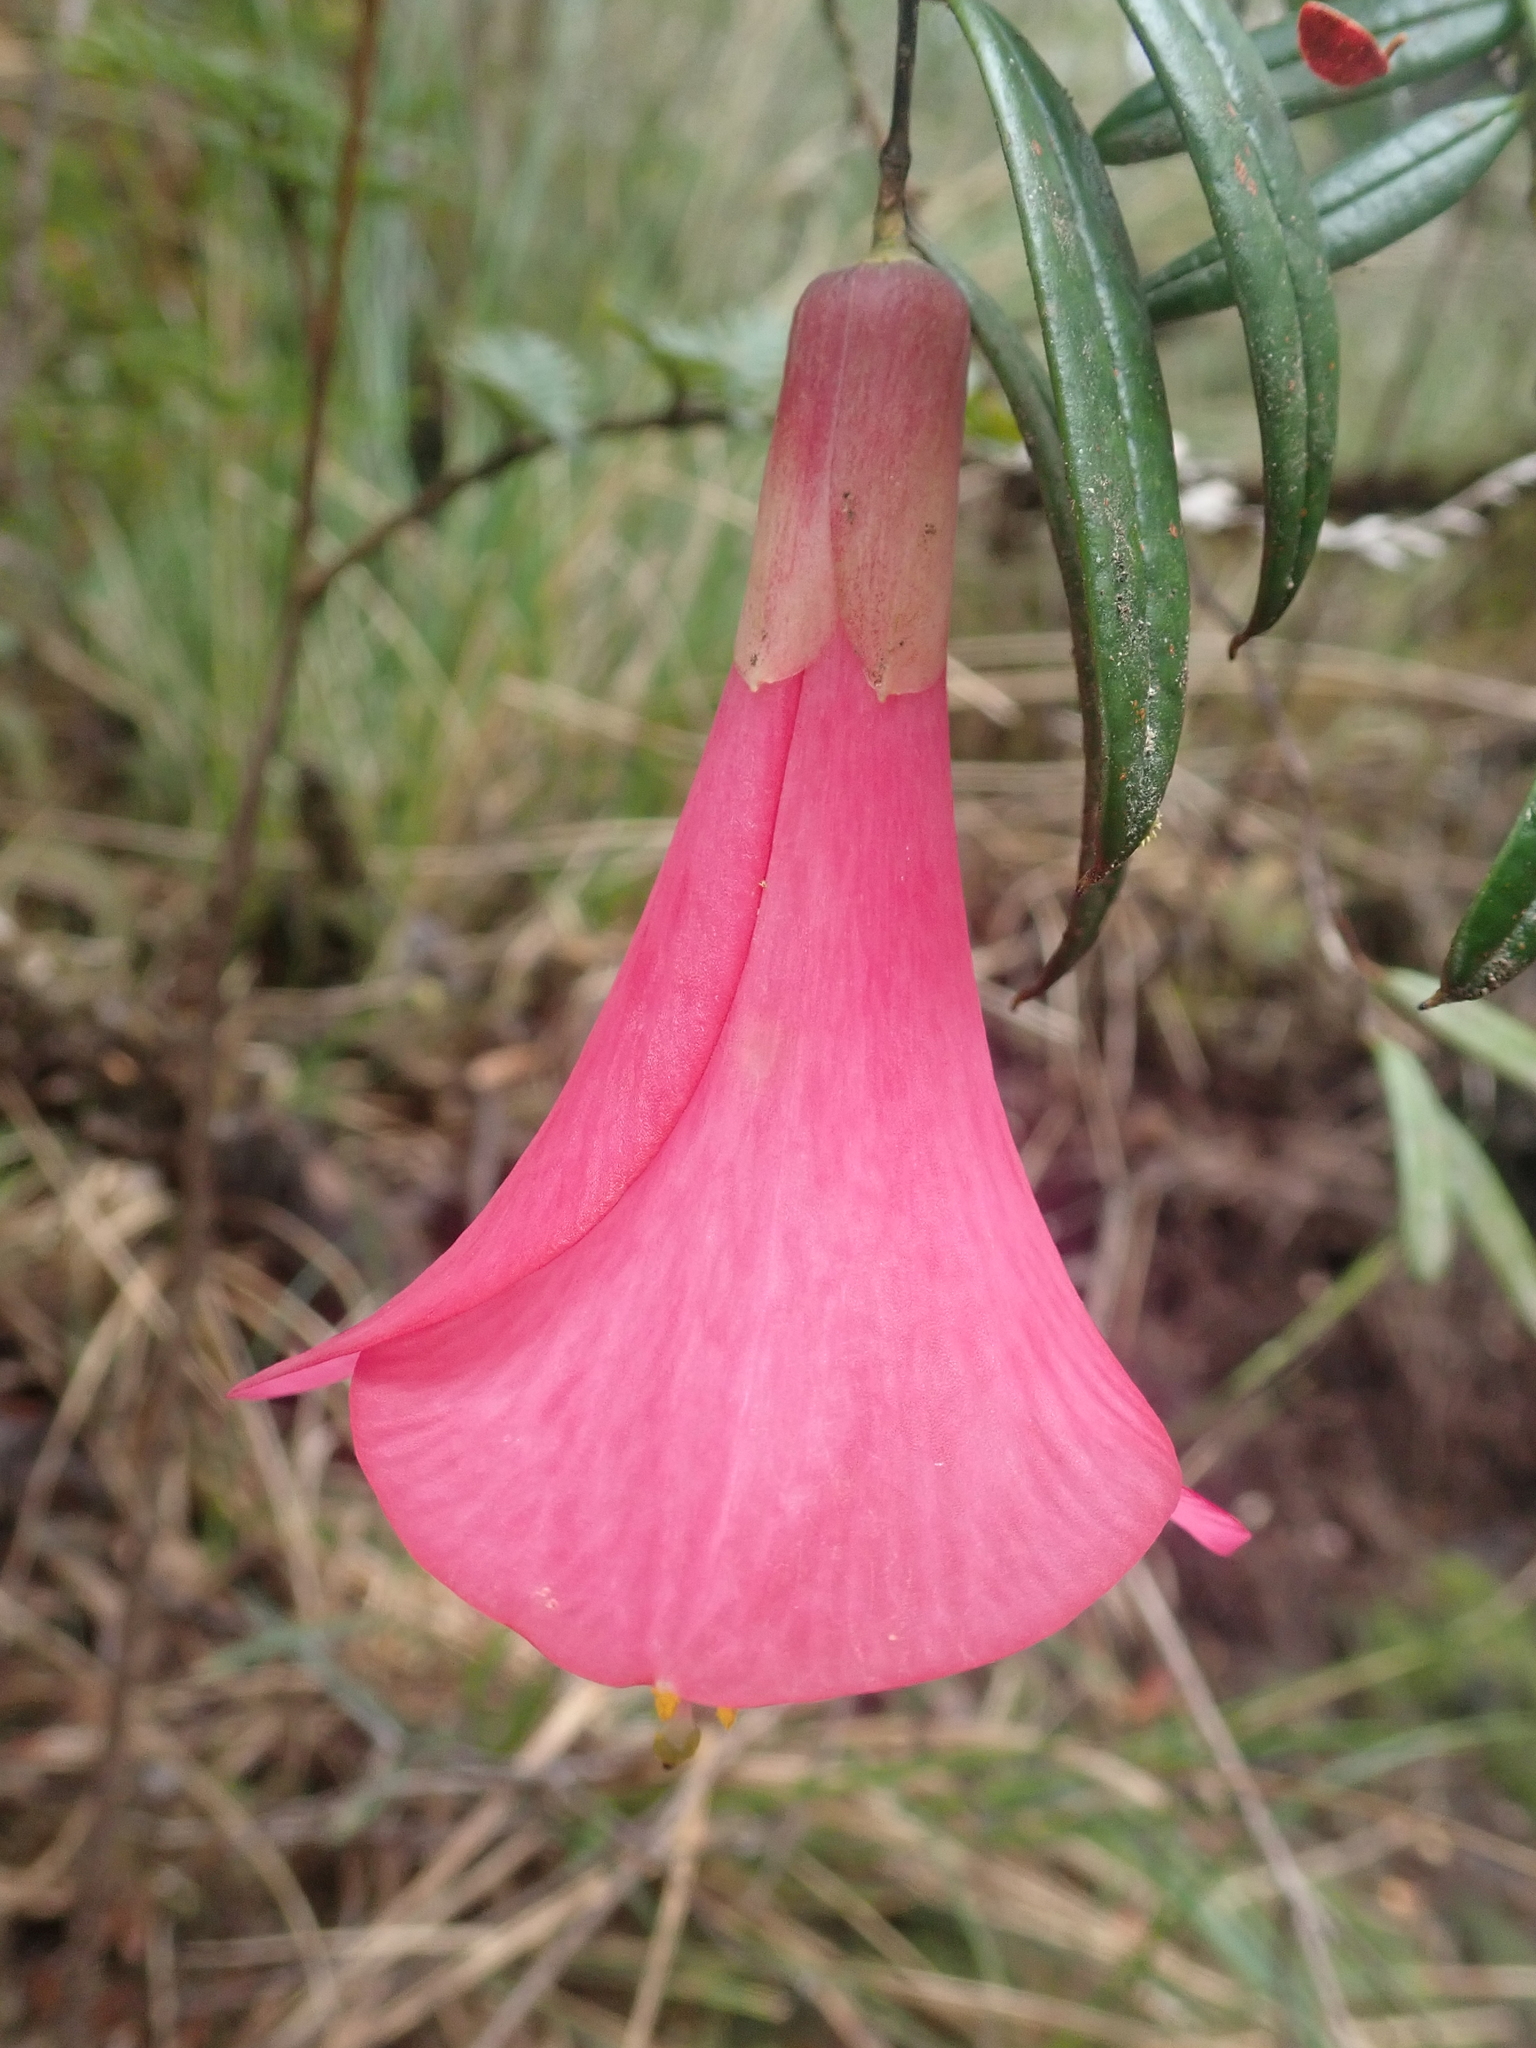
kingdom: Plantae
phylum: Tracheophyta
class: Liliopsida
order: Liliales
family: Philesiaceae
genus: Philesia
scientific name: Philesia magellanica
